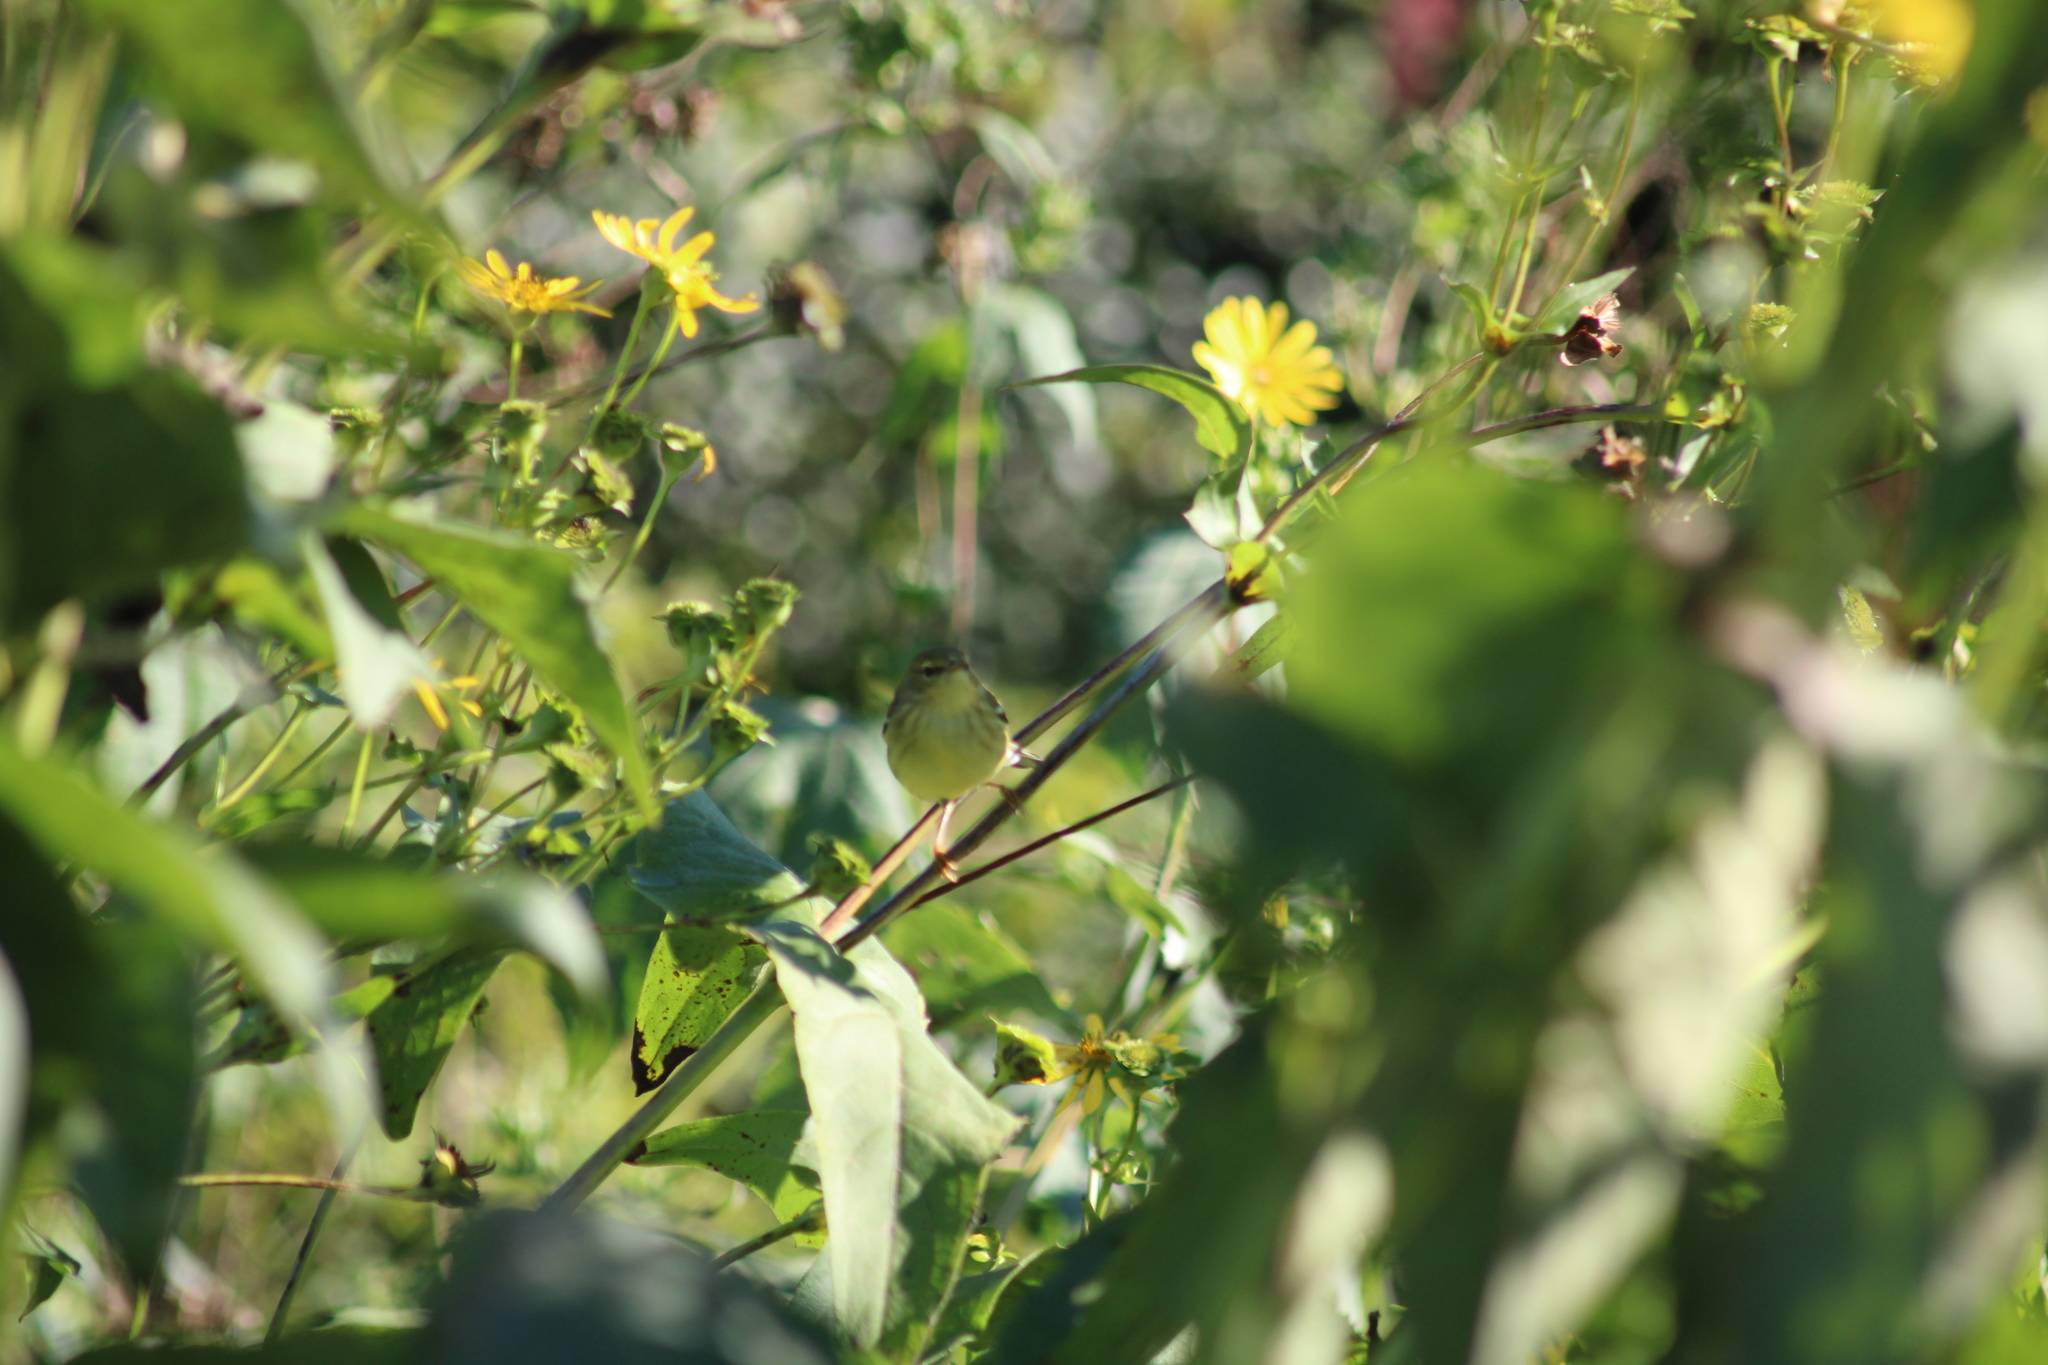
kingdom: Animalia
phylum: Chordata
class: Aves
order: Passeriformes
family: Parulidae
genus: Setophaga
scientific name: Setophaga striata
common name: Blackpoll warbler
